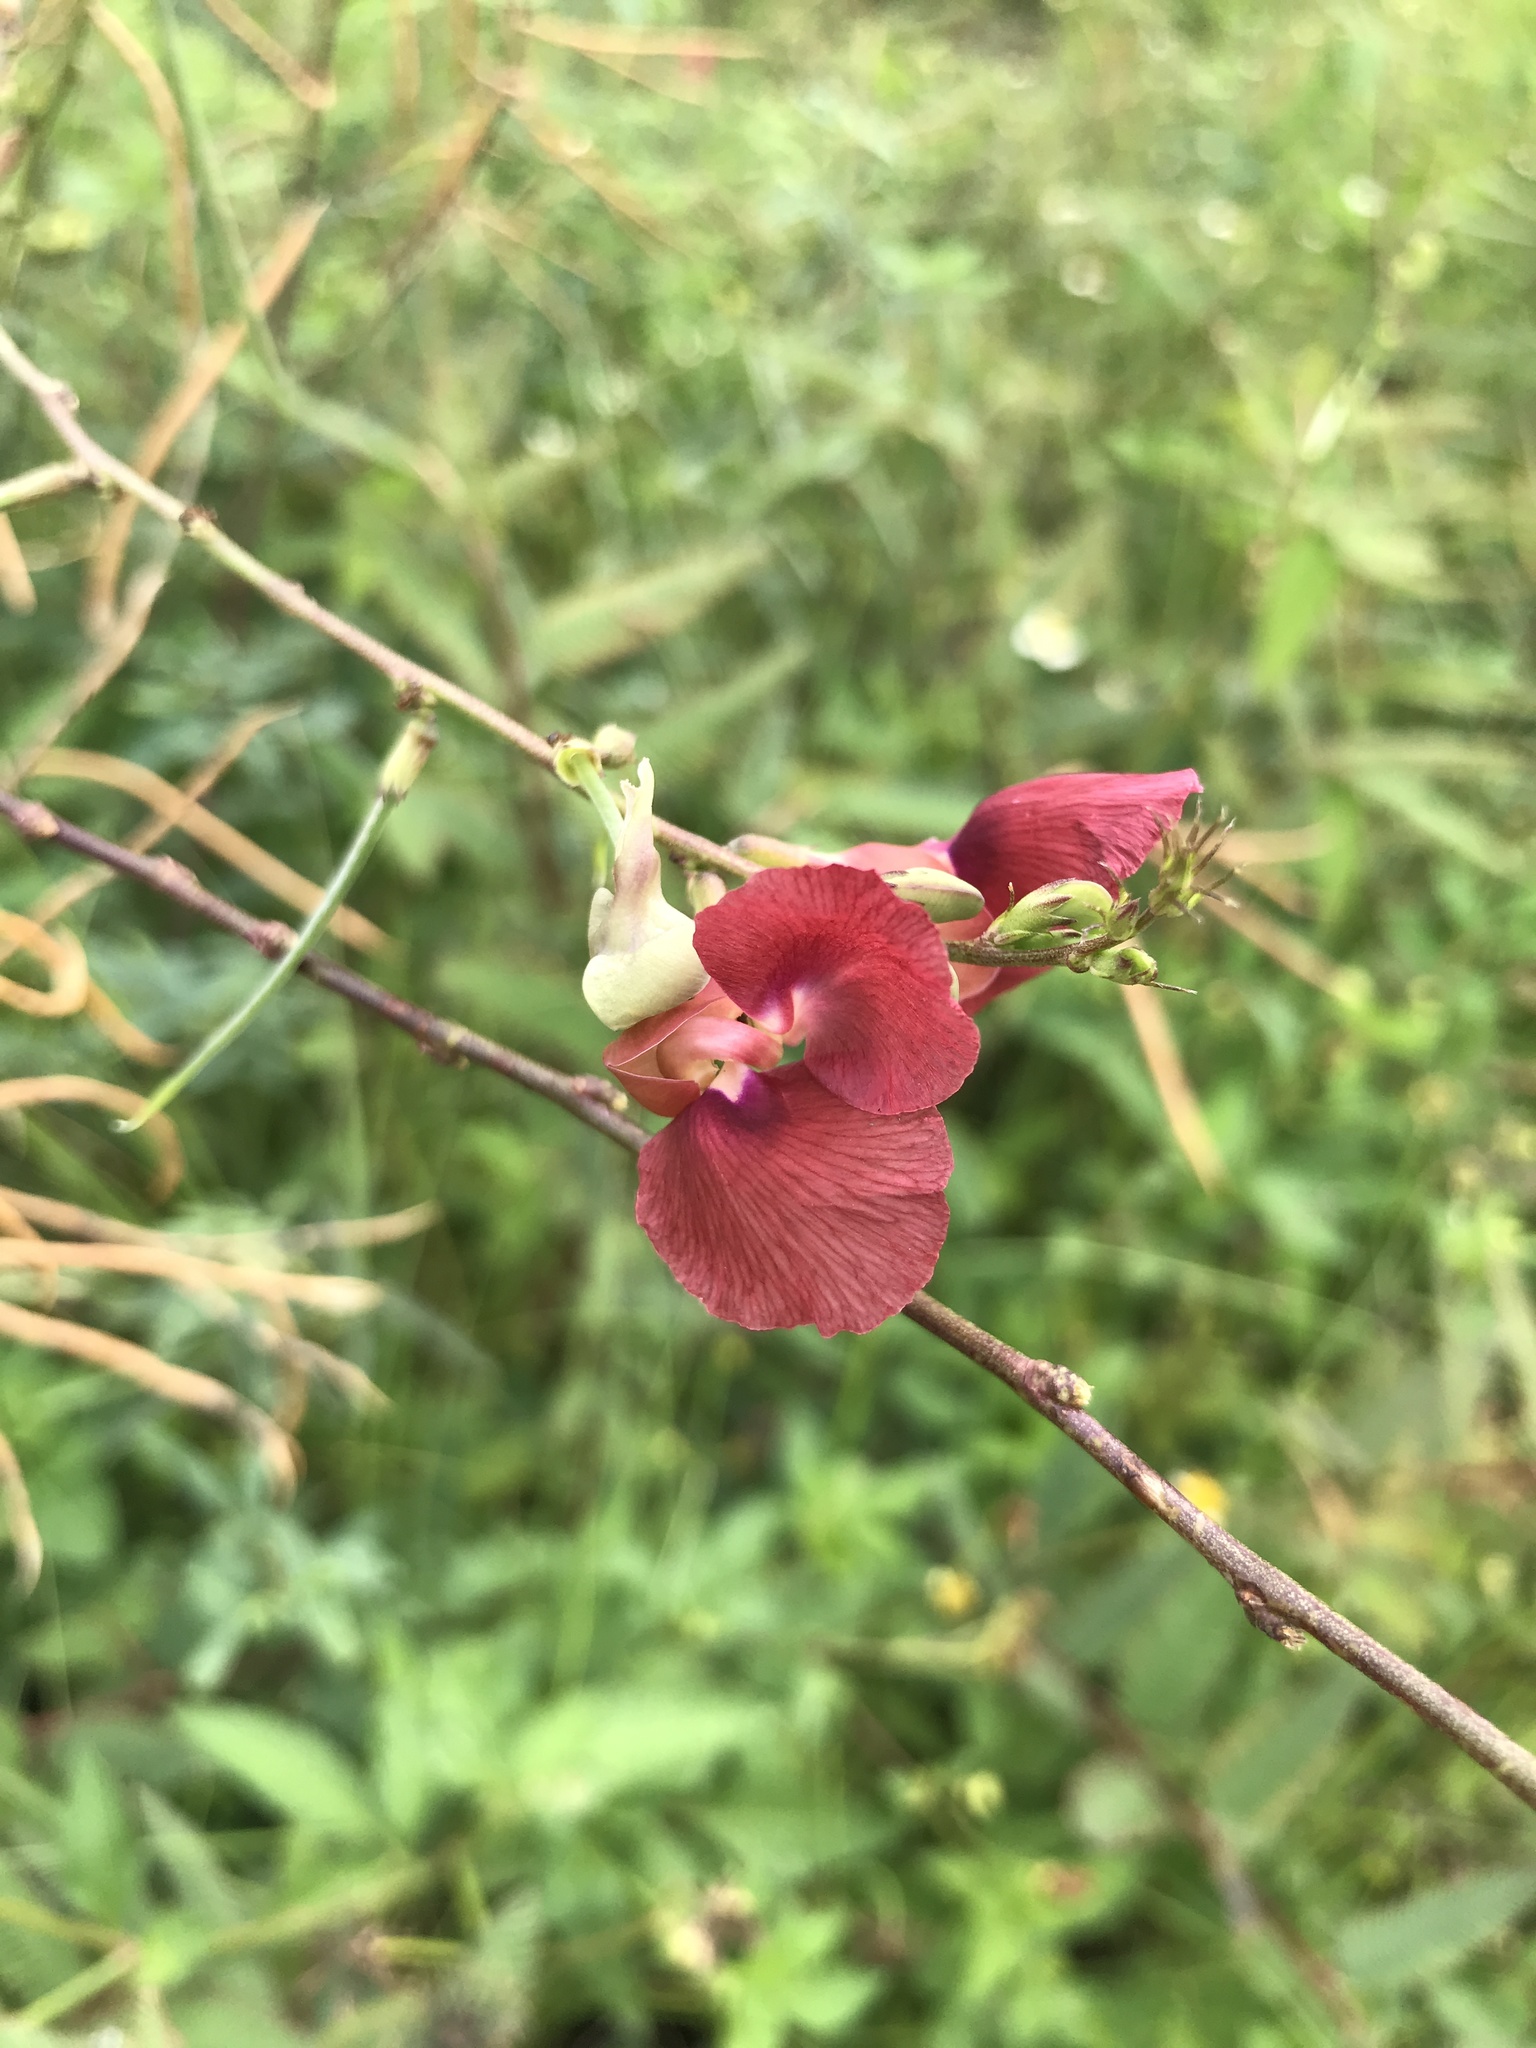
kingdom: Plantae
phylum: Tracheophyta
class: Magnoliopsida
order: Fabales
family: Fabaceae
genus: Macroptilium
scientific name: Macroptilium lathyroides
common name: Wild bushbean
